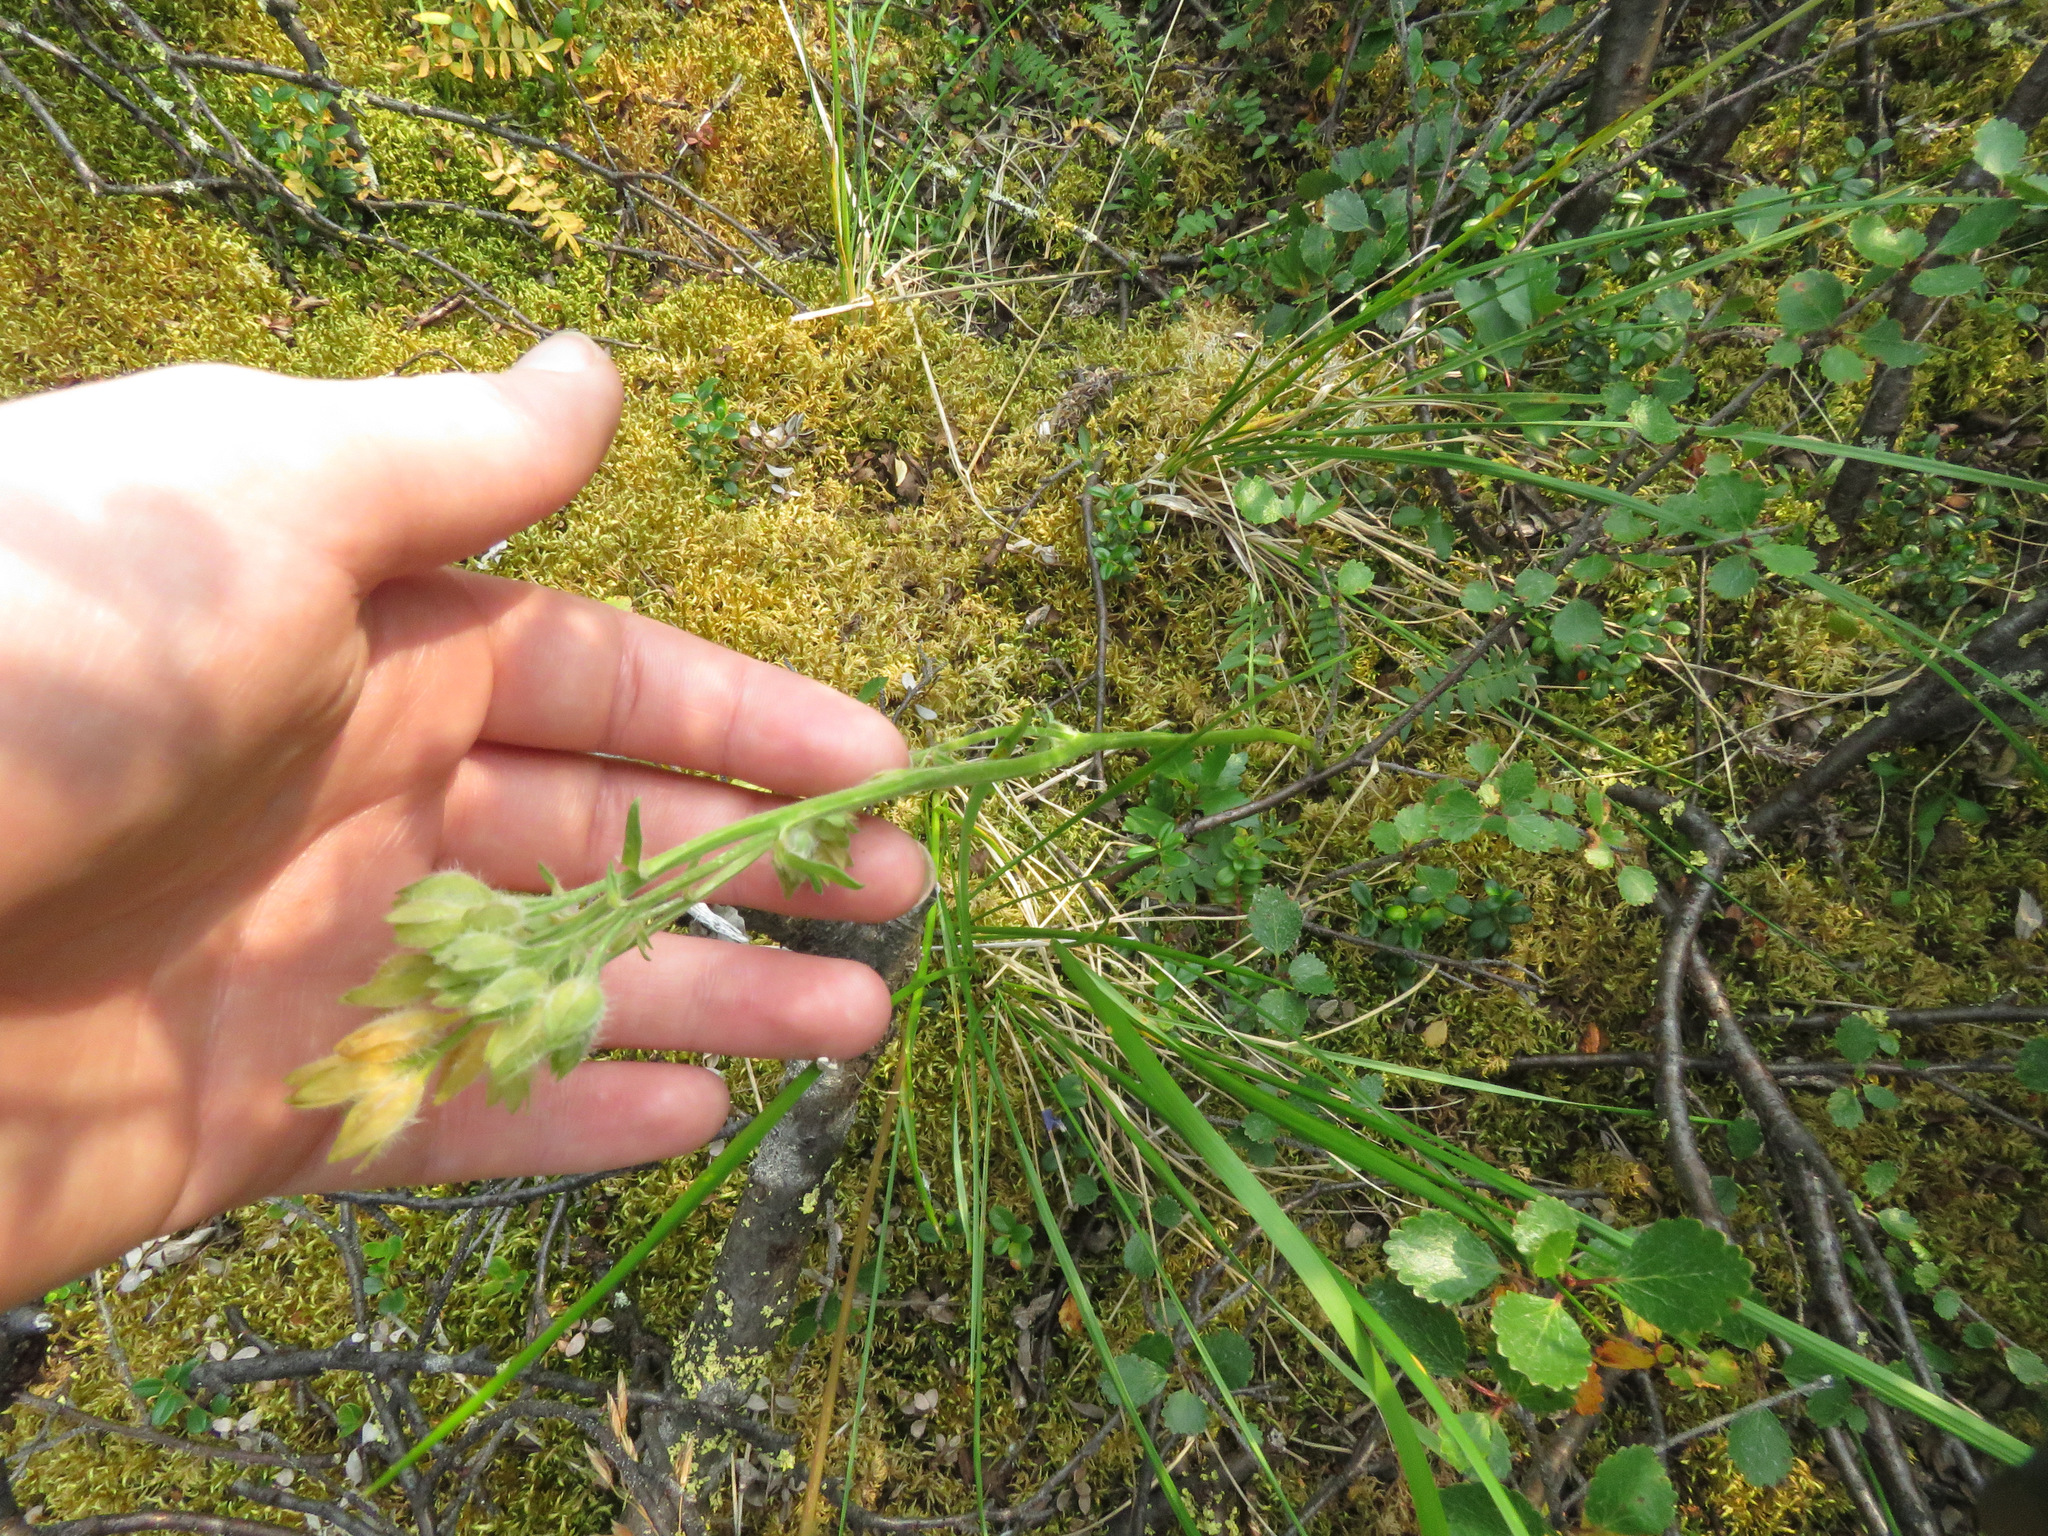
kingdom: Plantae
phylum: Tracheophyta
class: Magnoliopsida
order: Ericales
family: Polemoniaceae
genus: Polemonium
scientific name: Polemonium acutiflorum
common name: Tall jacob's-ladder
